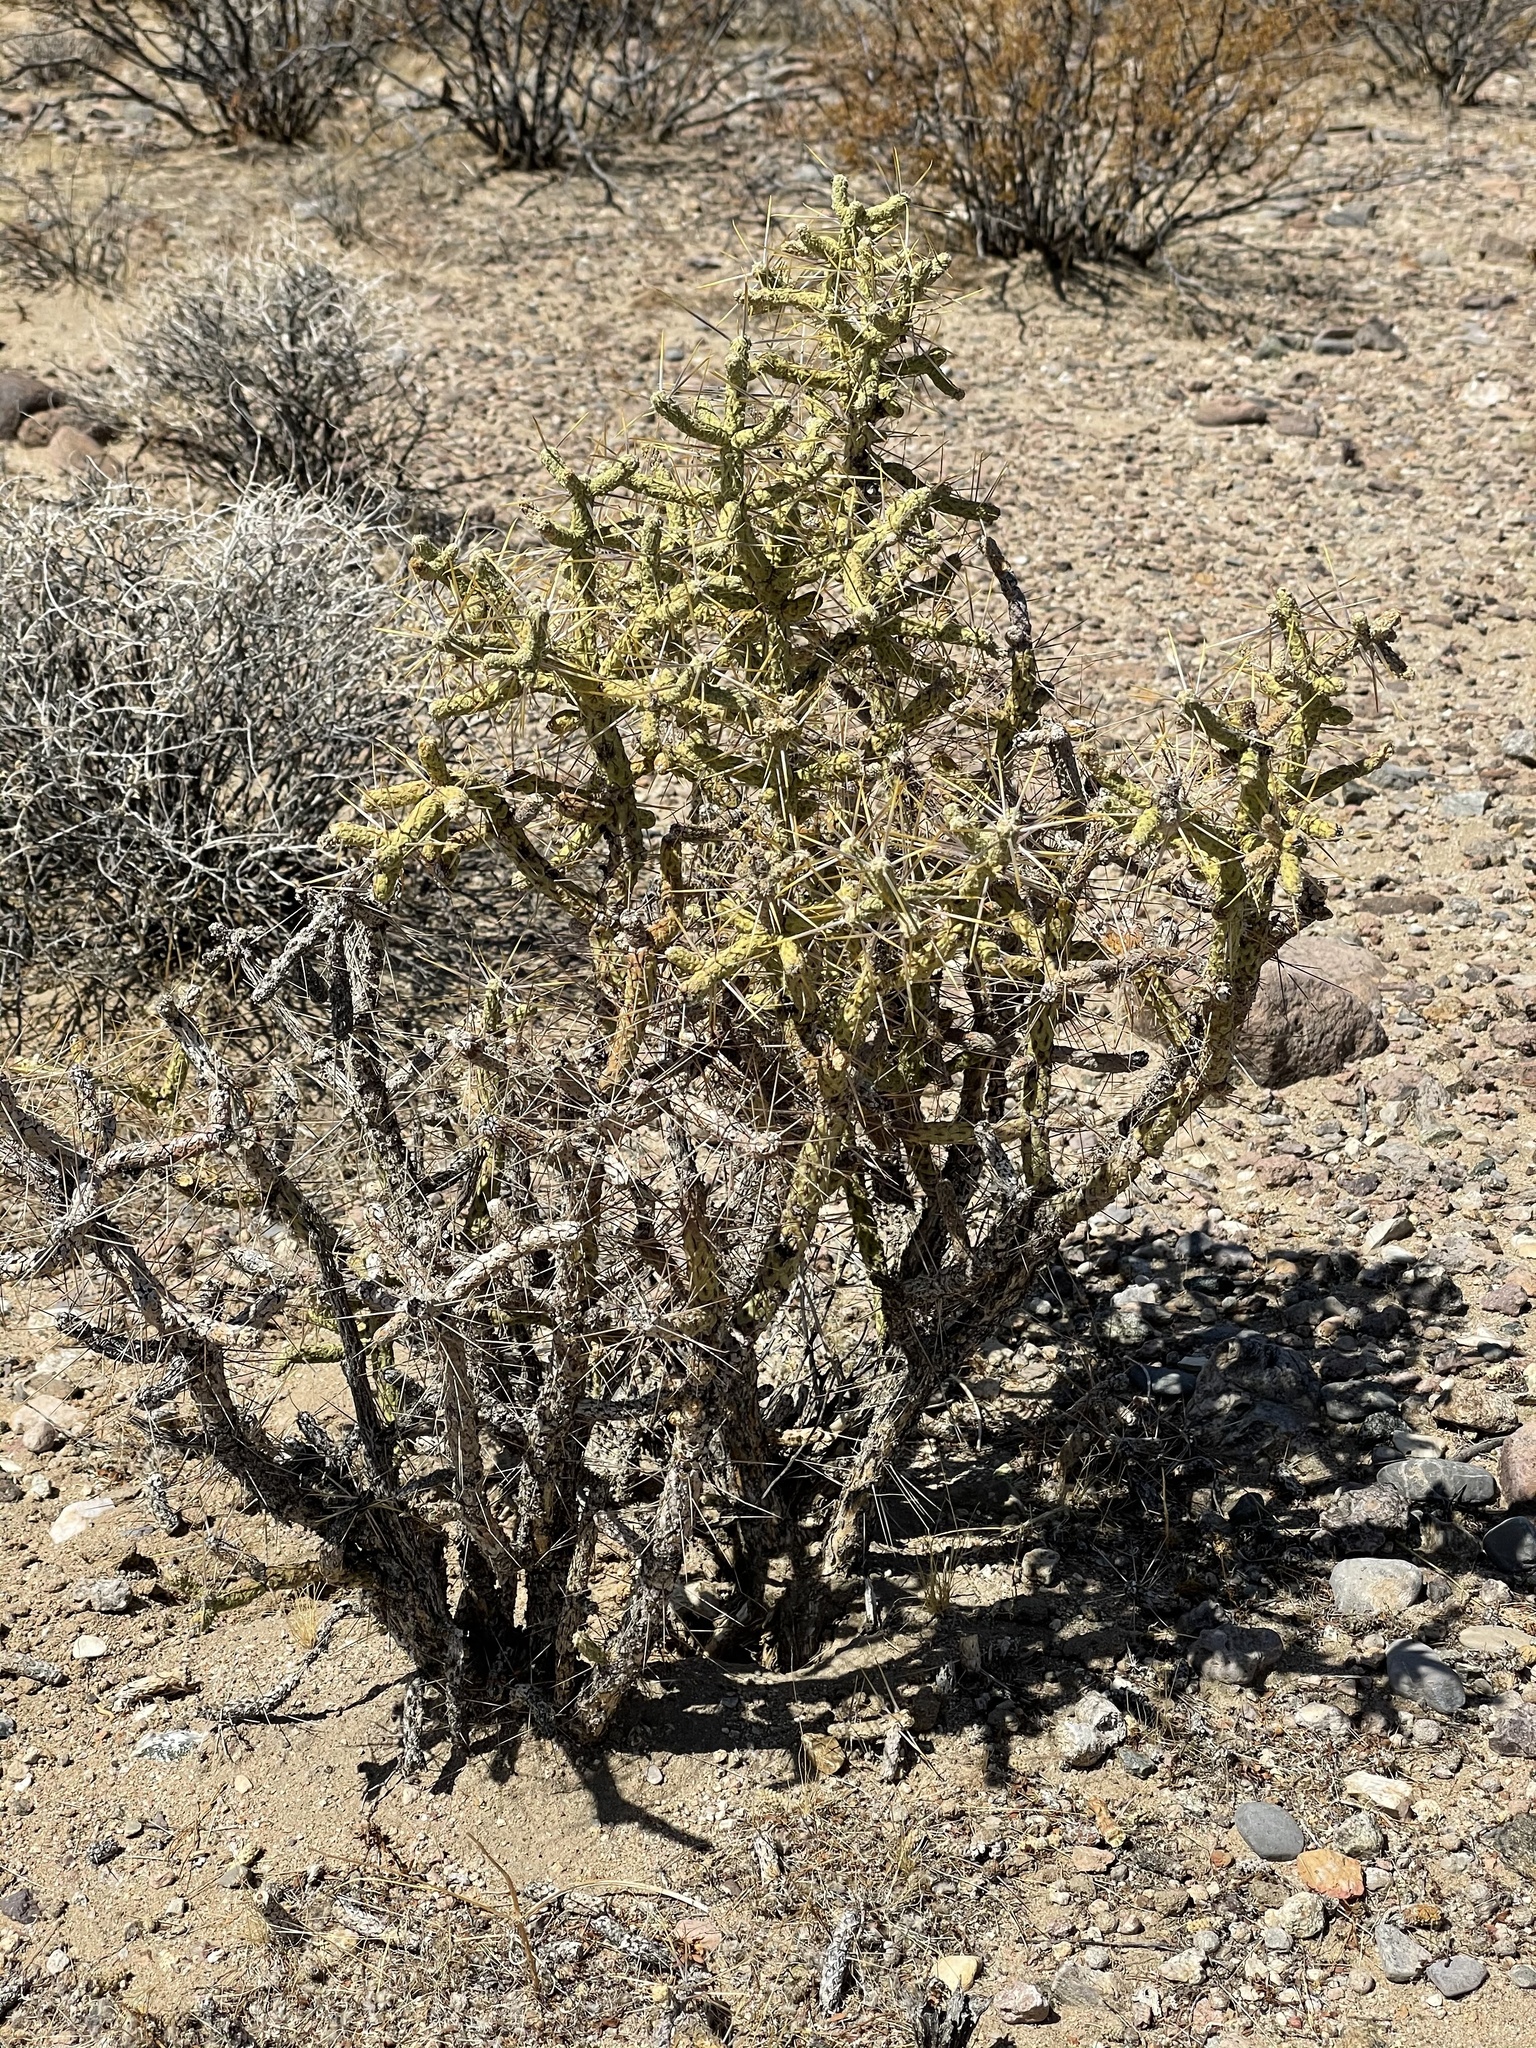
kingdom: Plantae
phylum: Tracheophyta
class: Magnoliopsida
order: Caryophyllales
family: Cactaceae
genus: Cylindropuntia
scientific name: Cylindropuntia ramosissima
